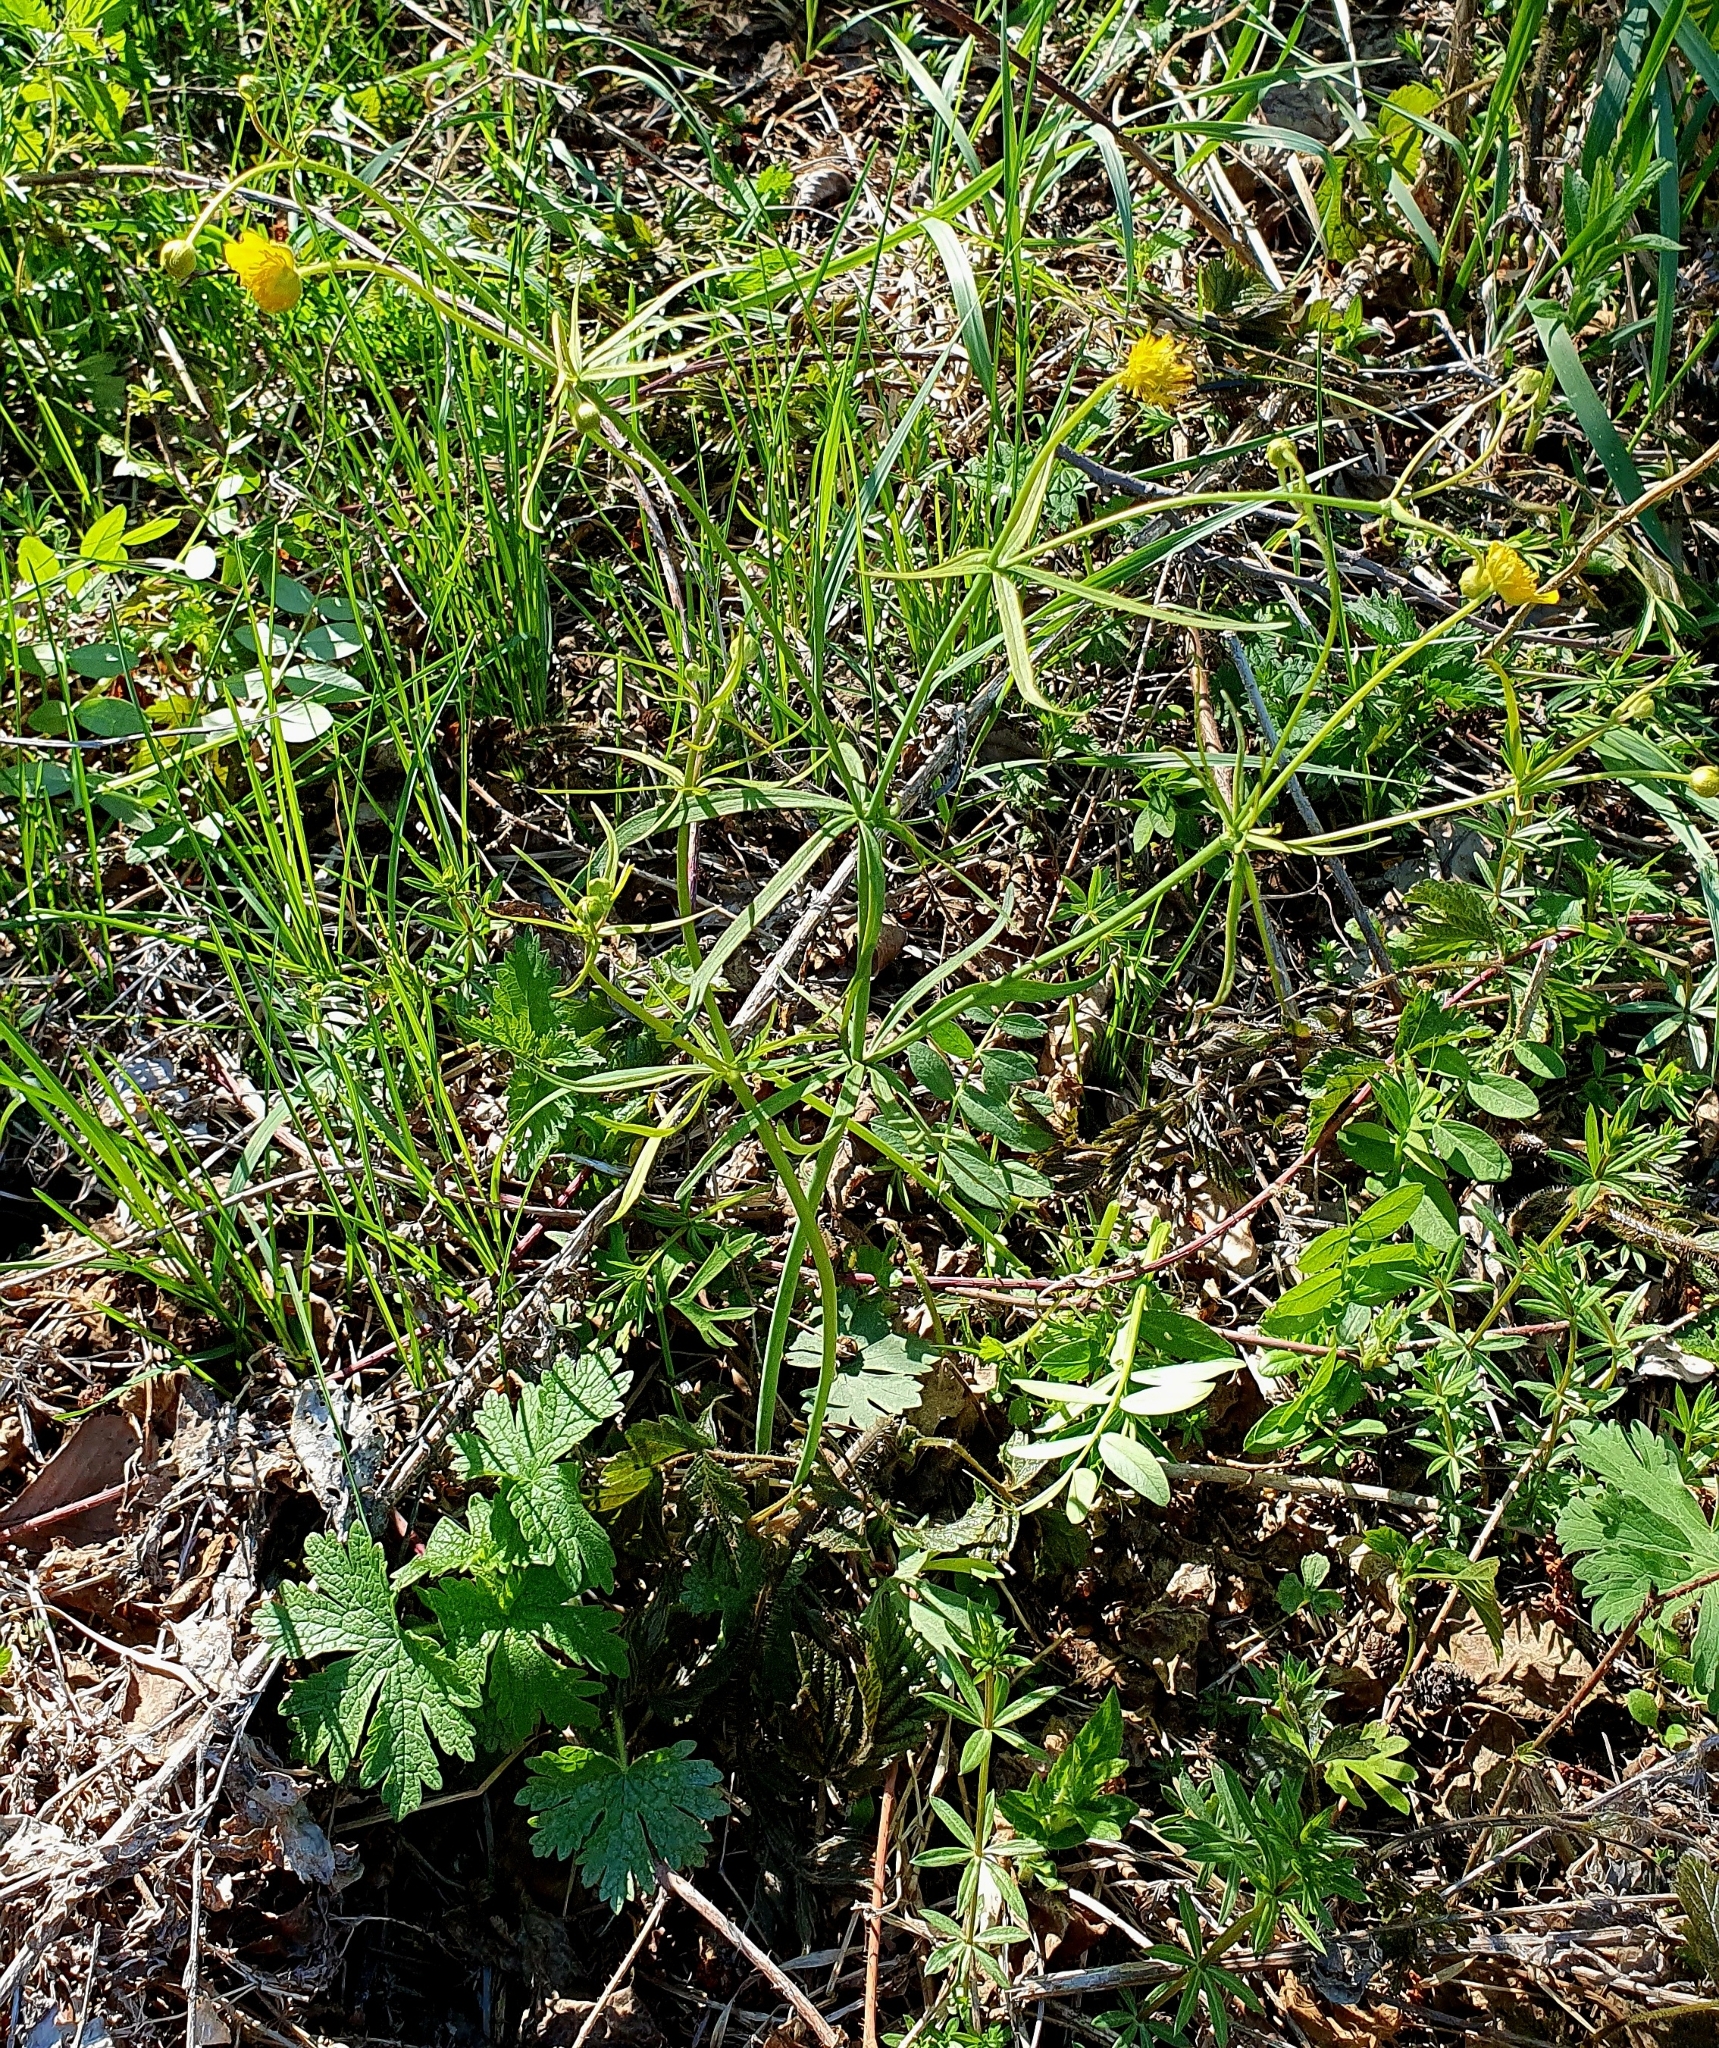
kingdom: Plantae
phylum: Tracheophyta
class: Magnoliopsida
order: Ranunculales
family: Ranunculaceae
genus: Ranunculus
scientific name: Ranunculus auricomus
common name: Goldilocks buttercup
